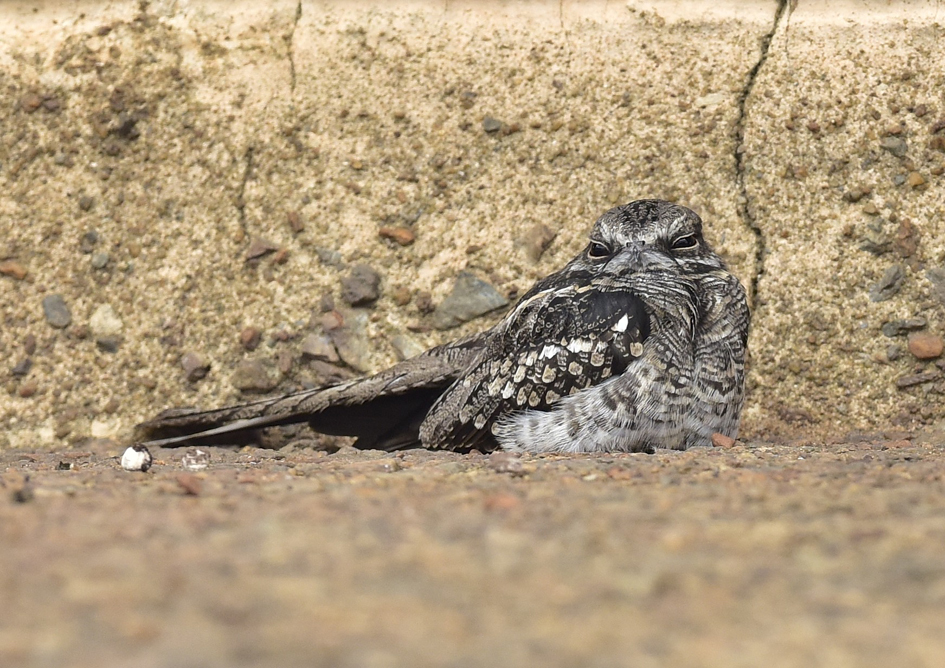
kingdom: Animalia
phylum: Chordata
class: Aves
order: Caprimulgiformes
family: Caprimulgidae
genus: Hydropsalis
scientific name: Hydropsalis climacocerca
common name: Ladder-tailed nightjar
